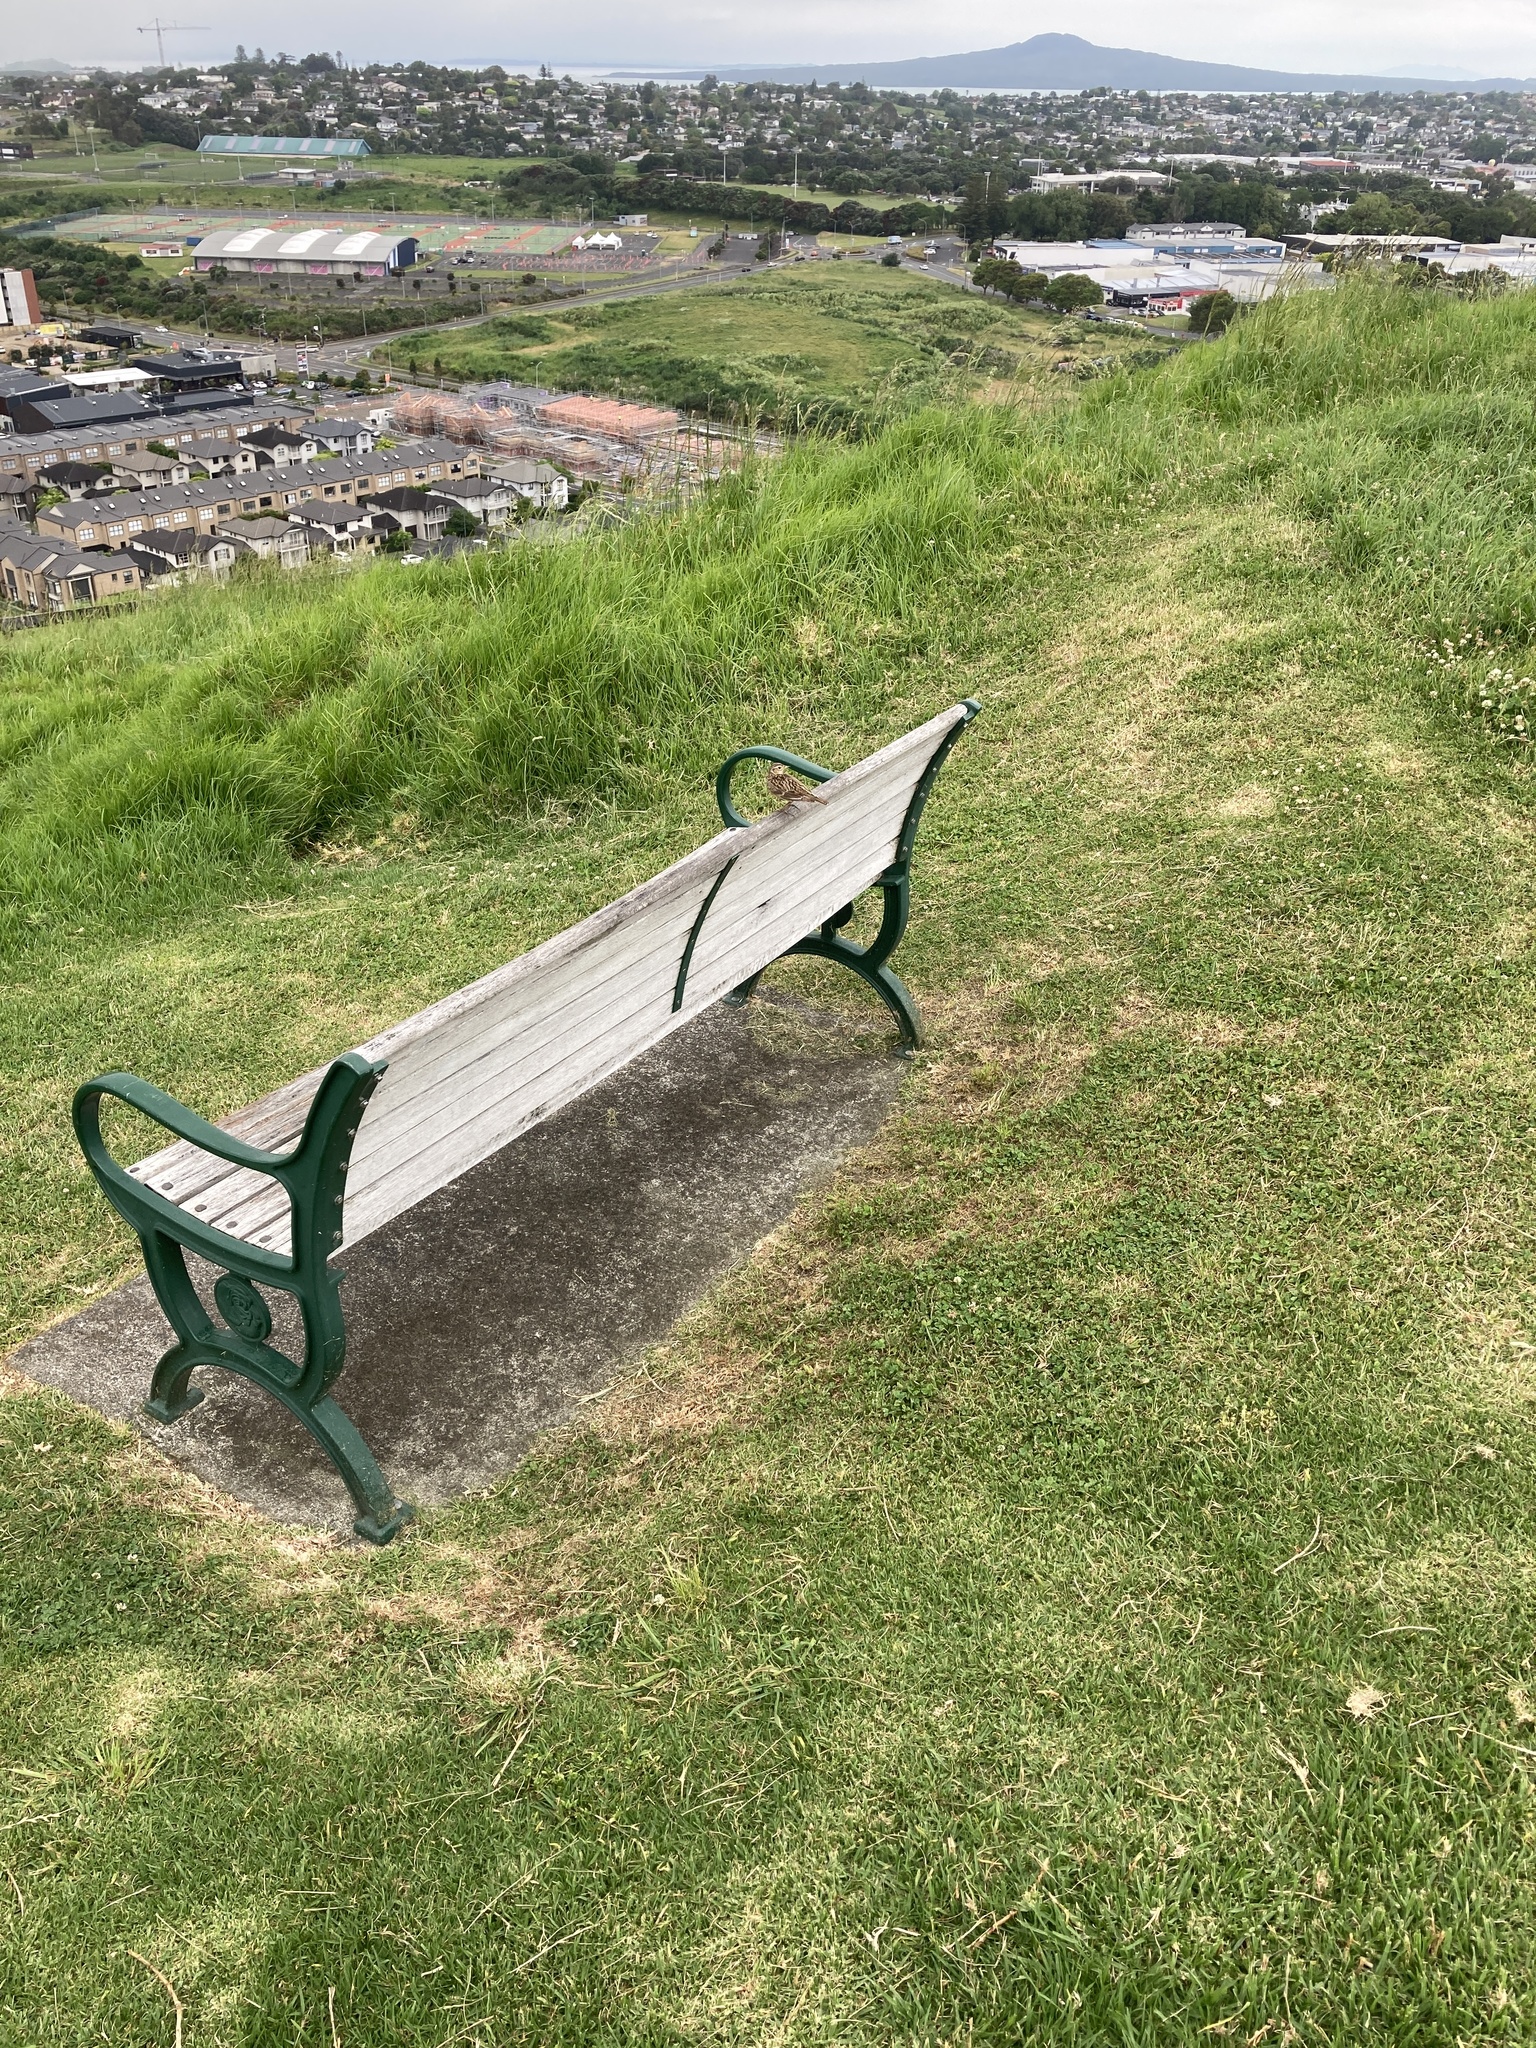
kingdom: Animalia
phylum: Chordata
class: Aves
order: Passeriformes
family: Alaudidae
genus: Alauda
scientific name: Alauda arvensis
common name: Eurasian skylark
